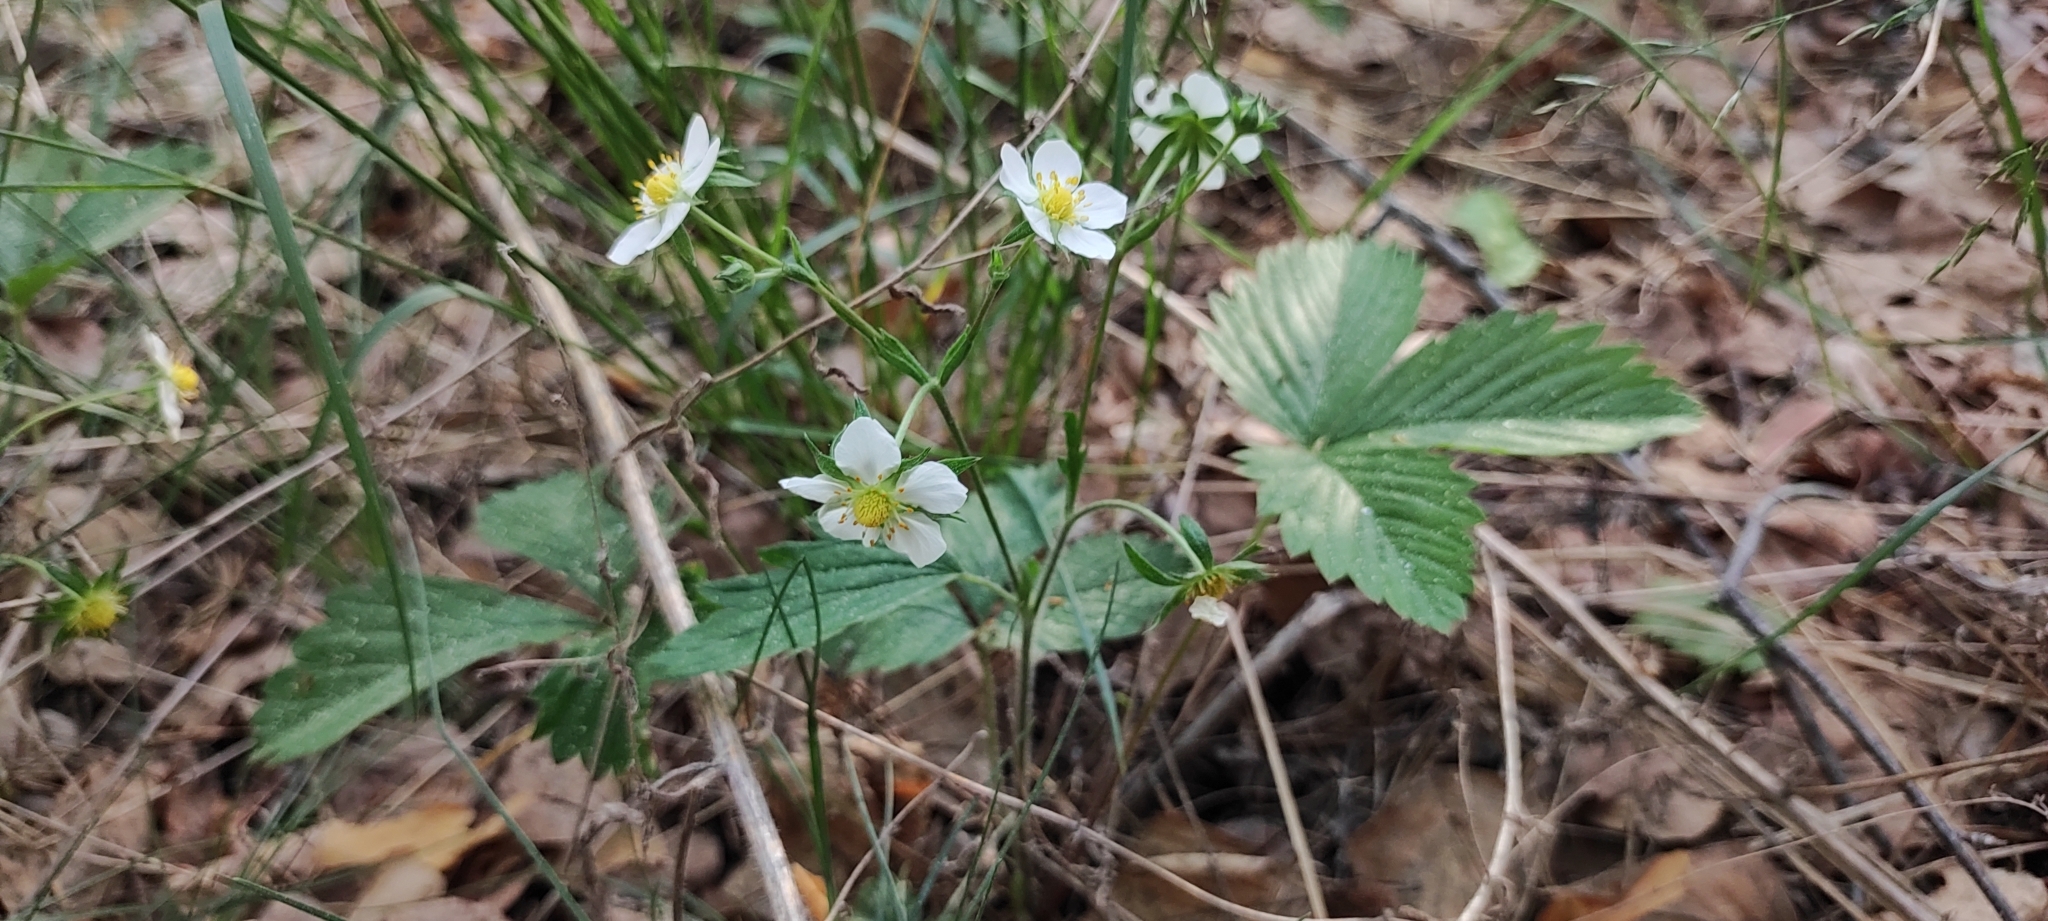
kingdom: Plantae
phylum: Tracheophyta
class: Magnoliopsida
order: Rosales
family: Rosaceae
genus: Fragaria
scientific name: Fragaria vesca
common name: Wild strawberry
